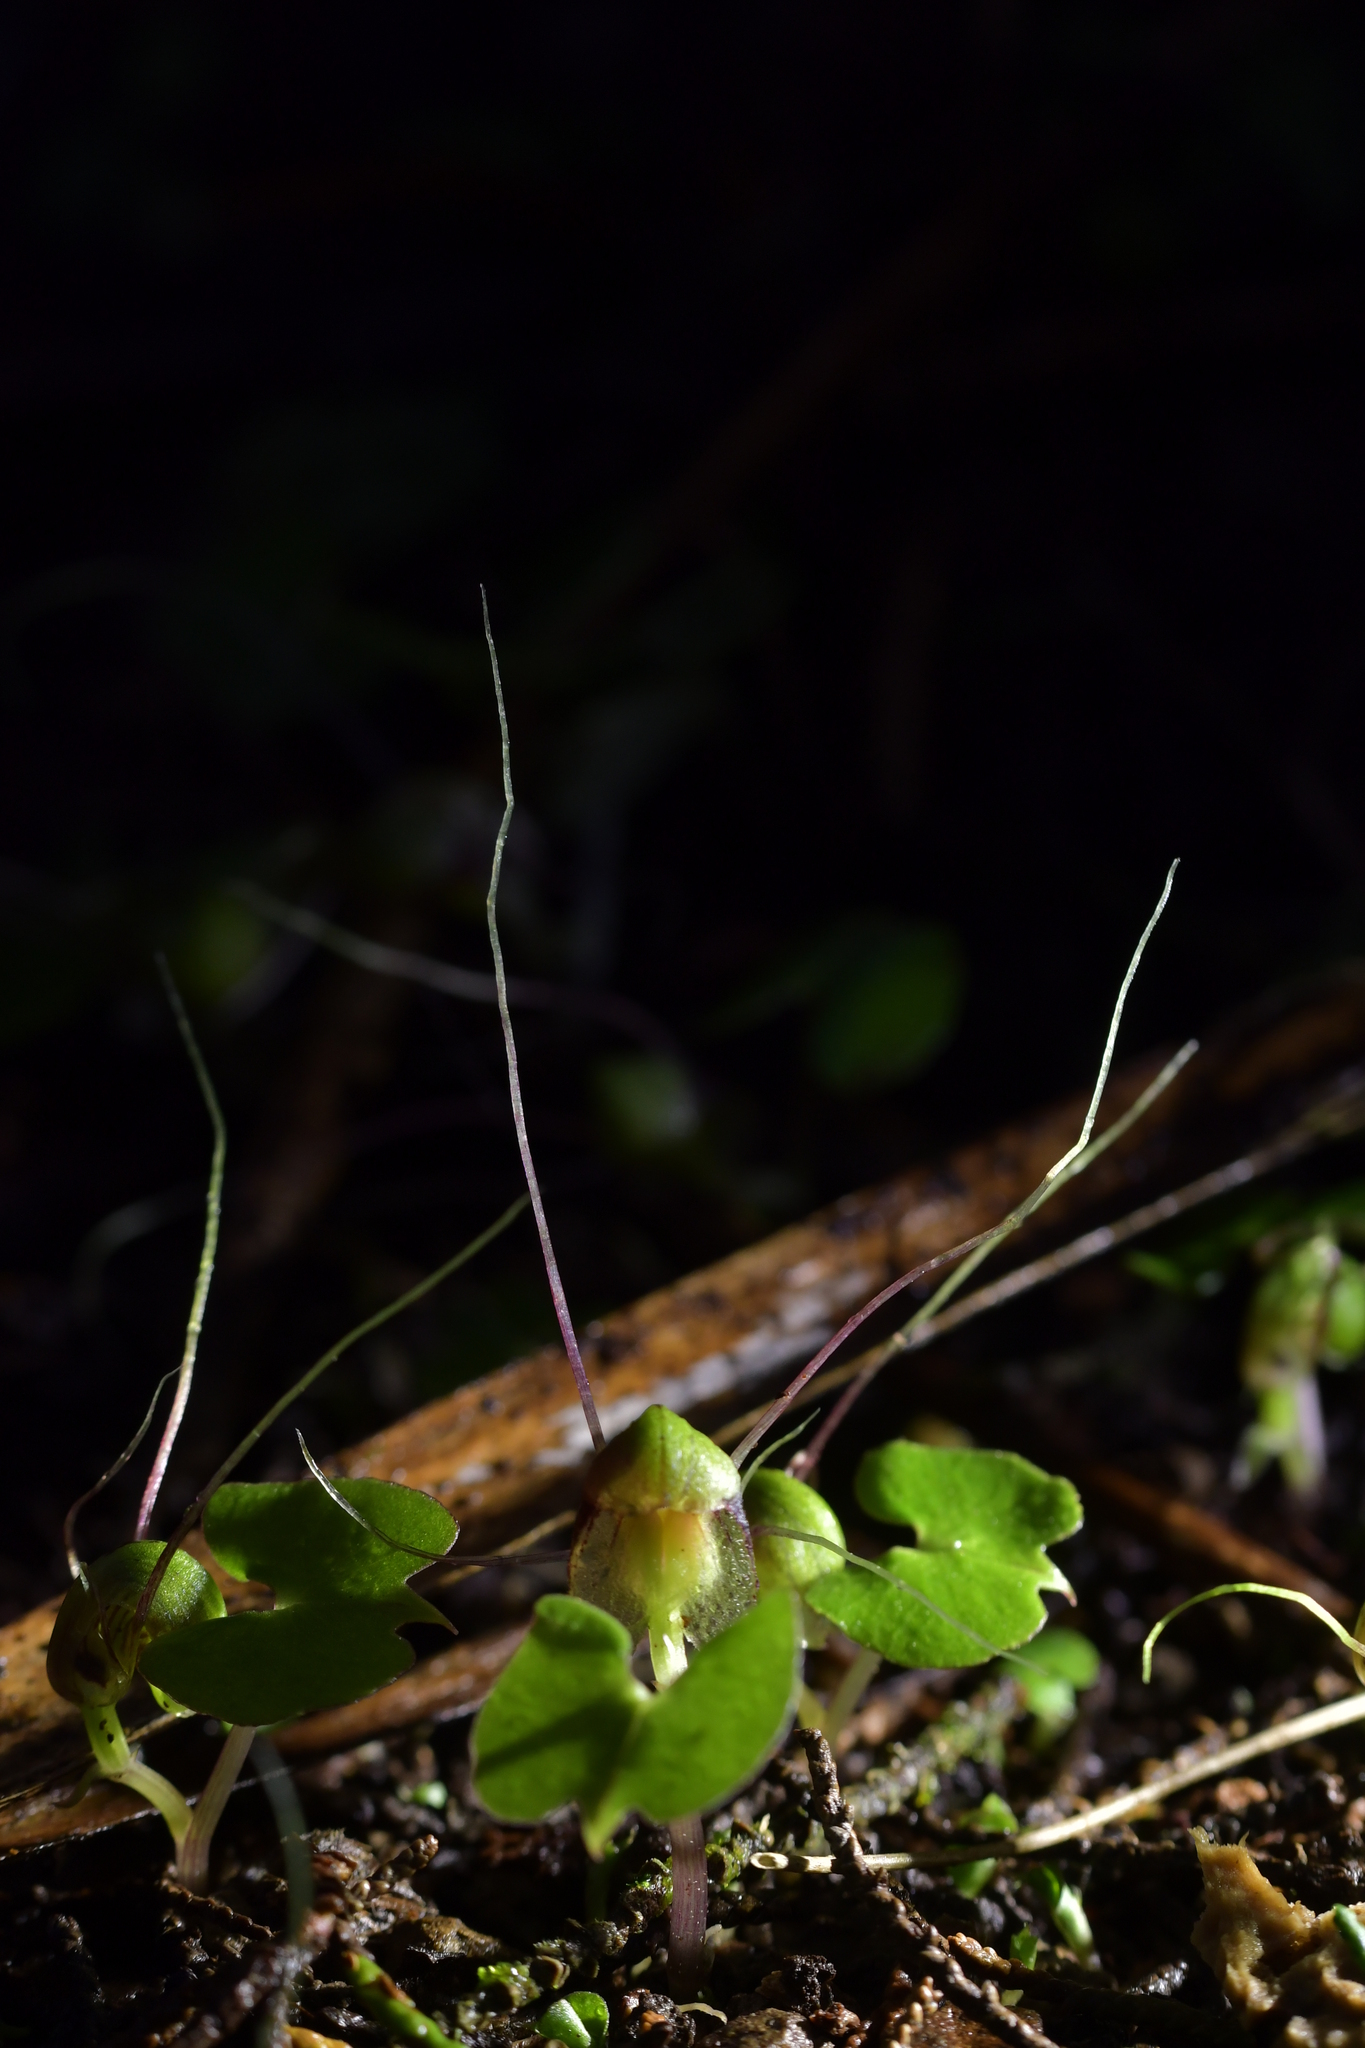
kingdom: Plantae
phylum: Tracheophyta
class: Liliopsida
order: Asparagales
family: Orchidaceae
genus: Corybas
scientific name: Corybas vitreus
